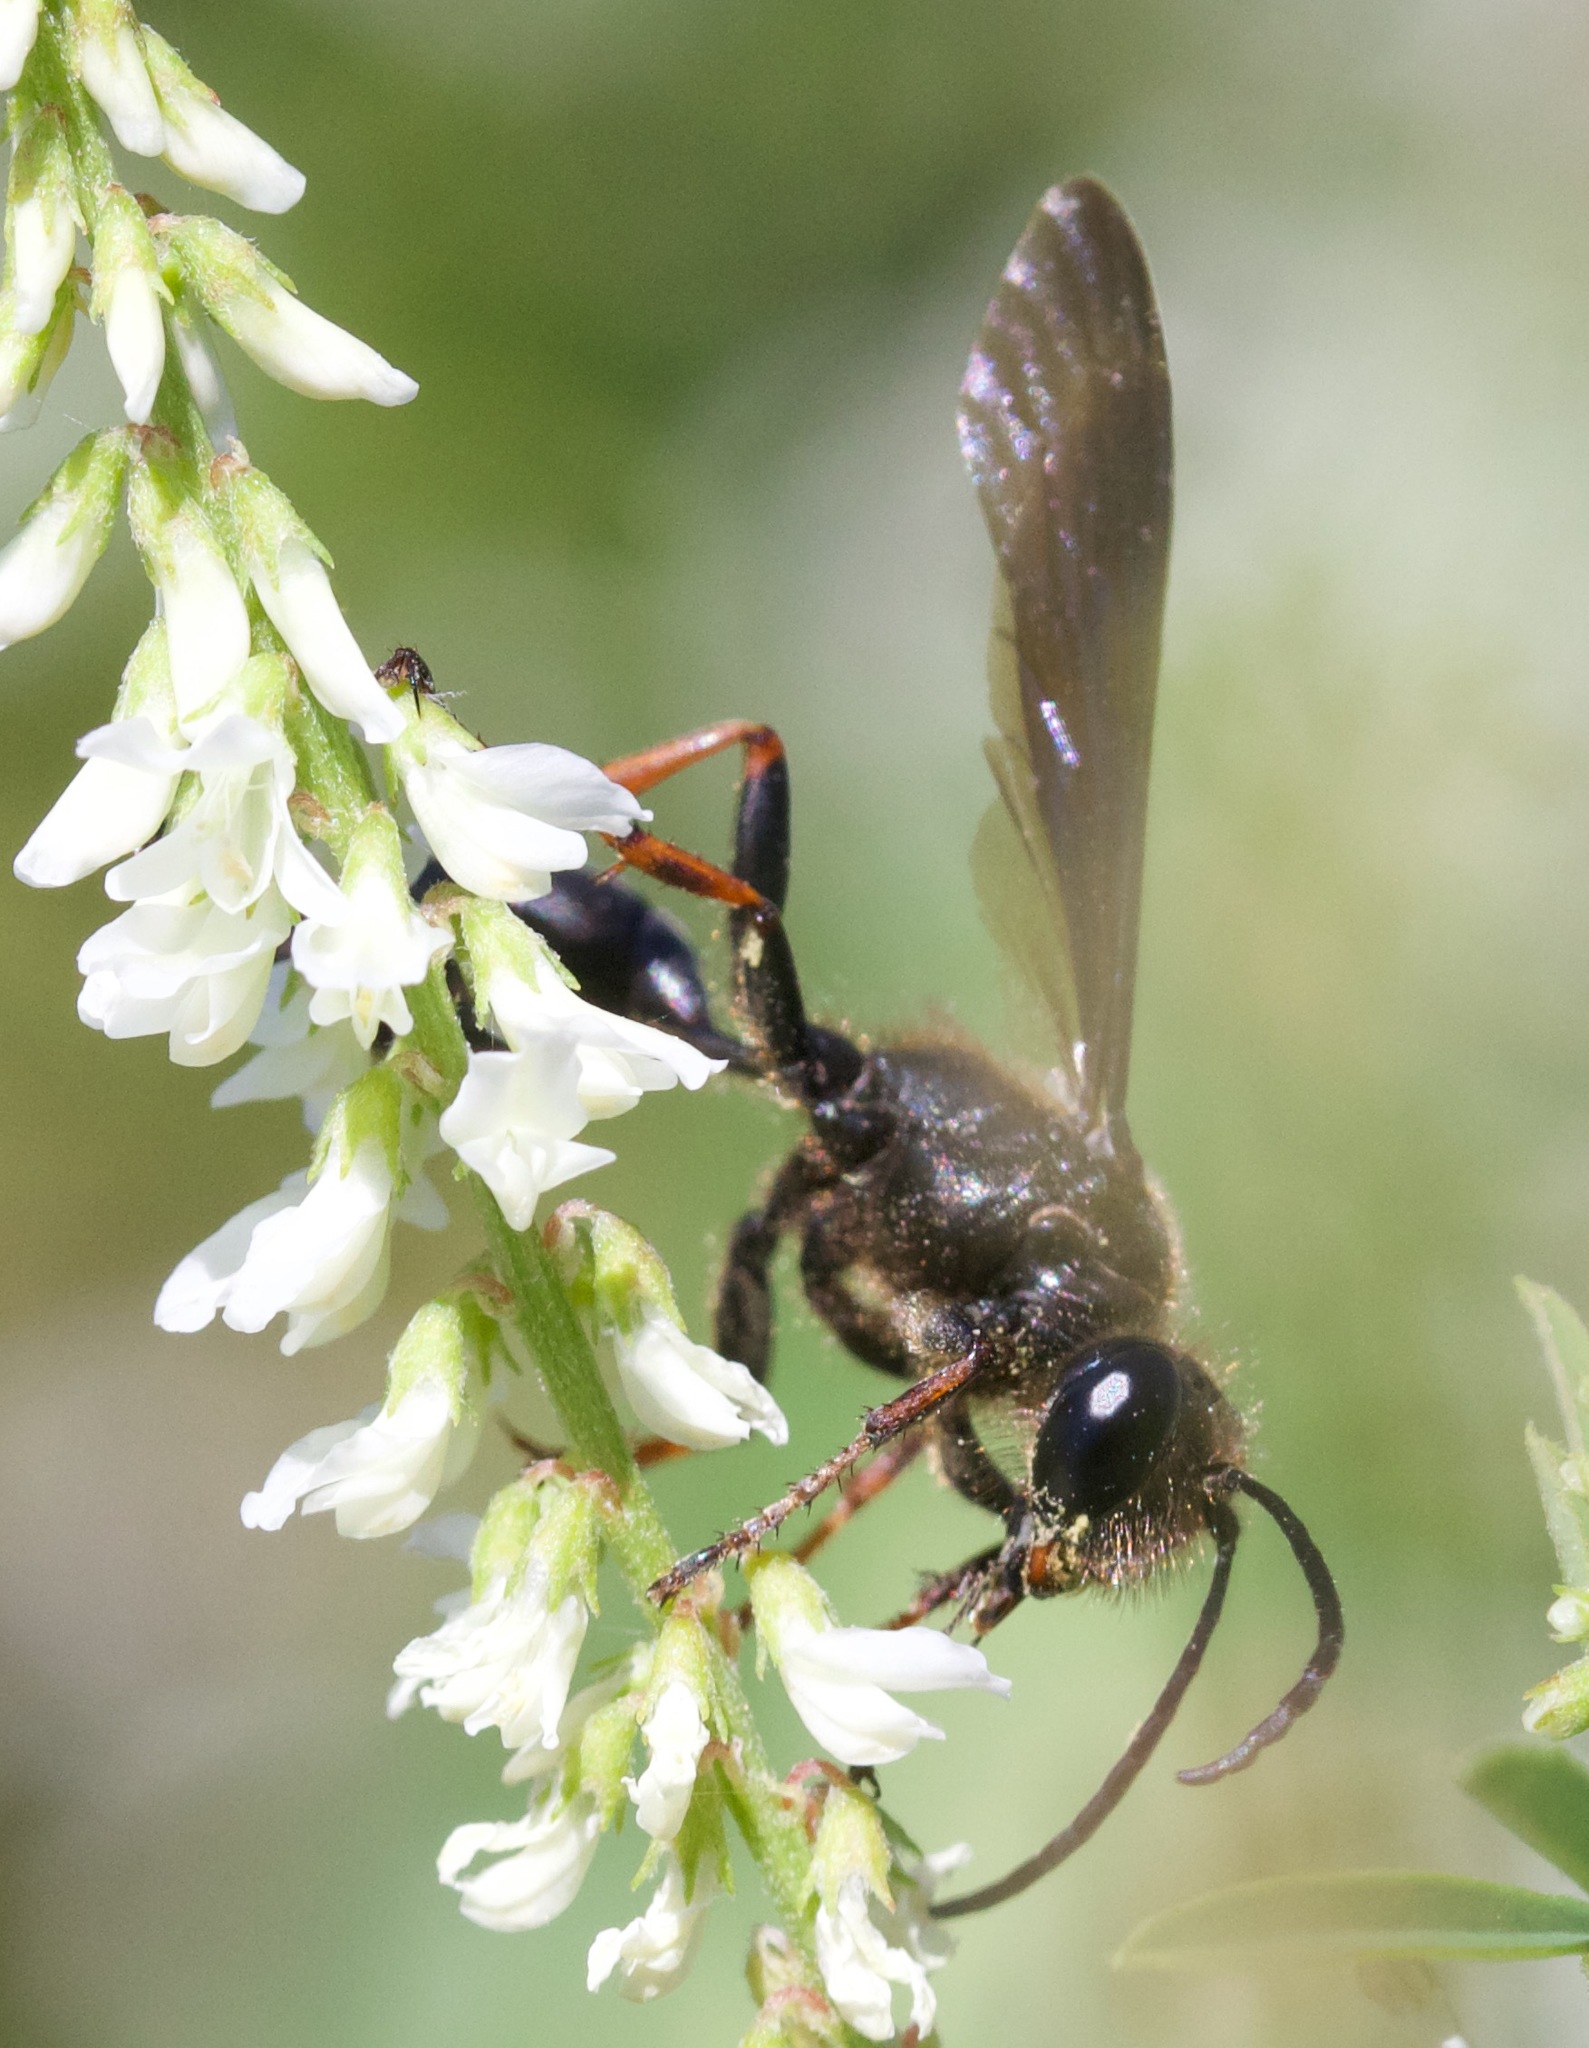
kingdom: Animalia
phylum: Arthropoda
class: Insecta
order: Hymenoptera
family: Sphecidae
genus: Isodontia
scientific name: Isodontia auripes
